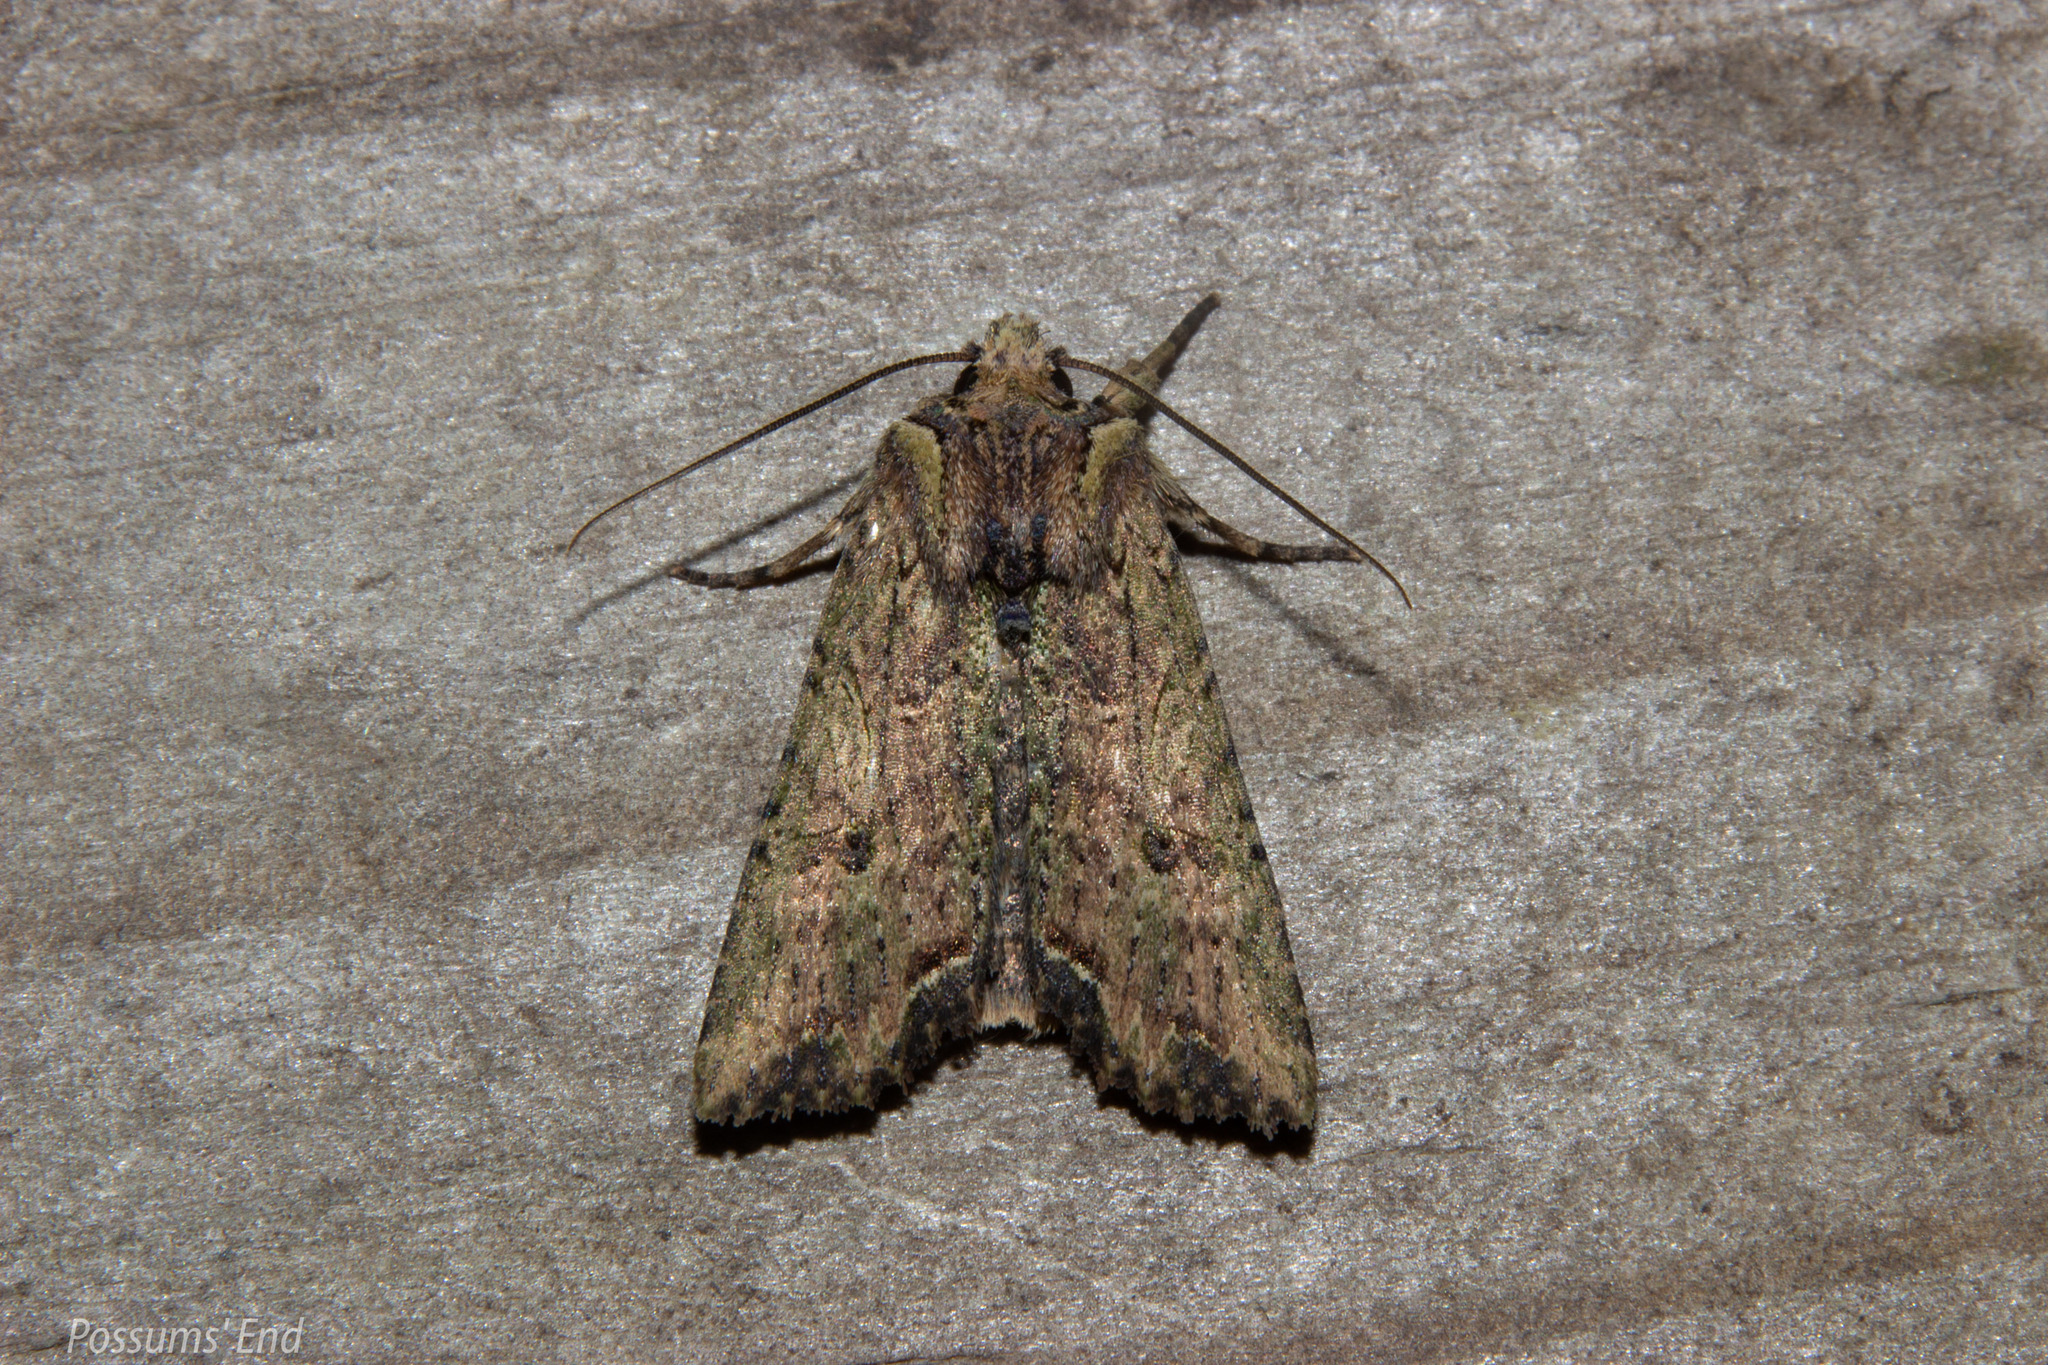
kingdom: Animalia
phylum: Arthropoda
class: Insecta
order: Lepidoptera
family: Noctuidae
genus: Meterana
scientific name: Meterana coeleno
